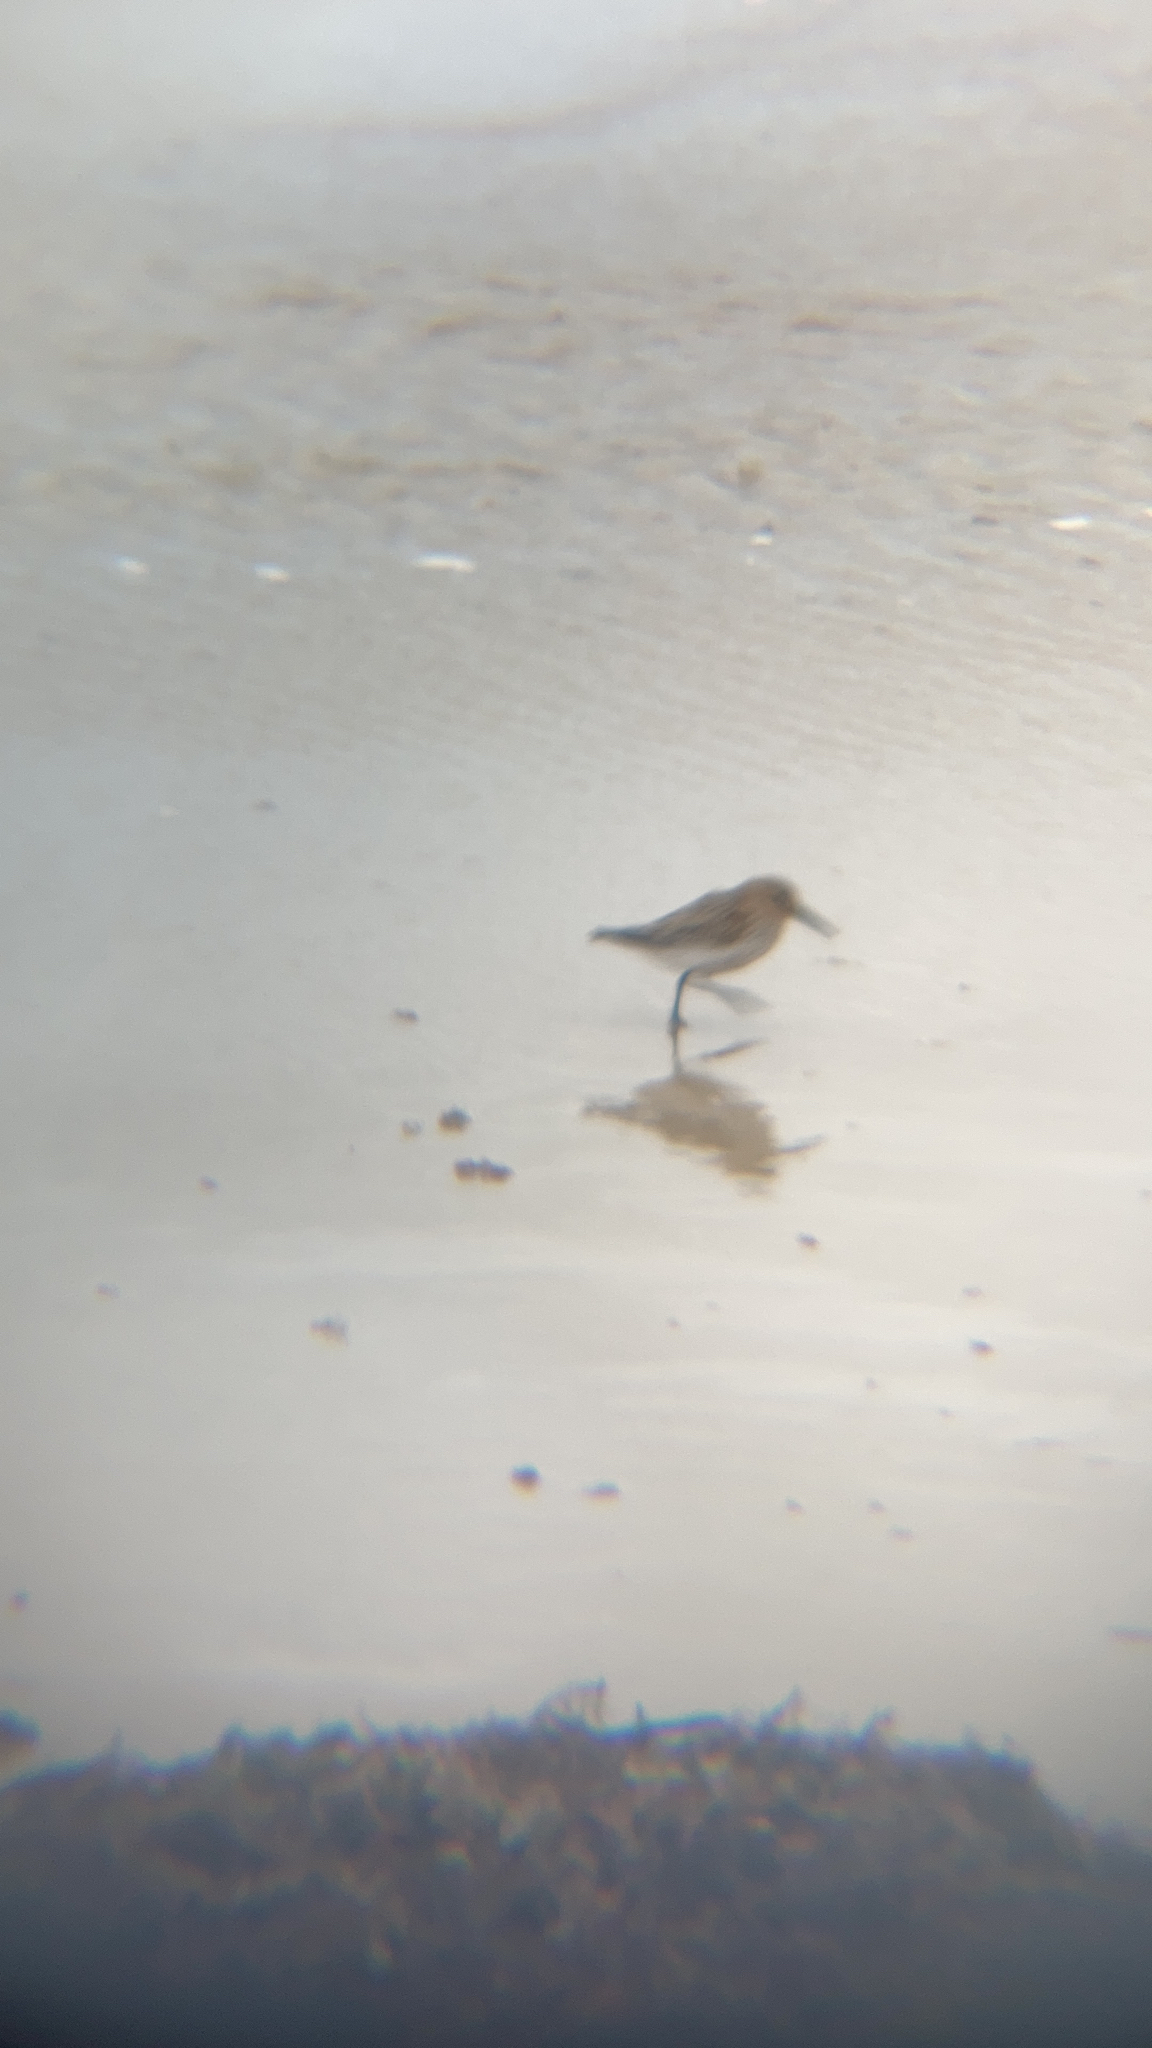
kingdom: Animalia
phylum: Chordata
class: Aves
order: Charadriiformes
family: Scolopacidae
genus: Calidris
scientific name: Calidris alpina
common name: Dunlin
